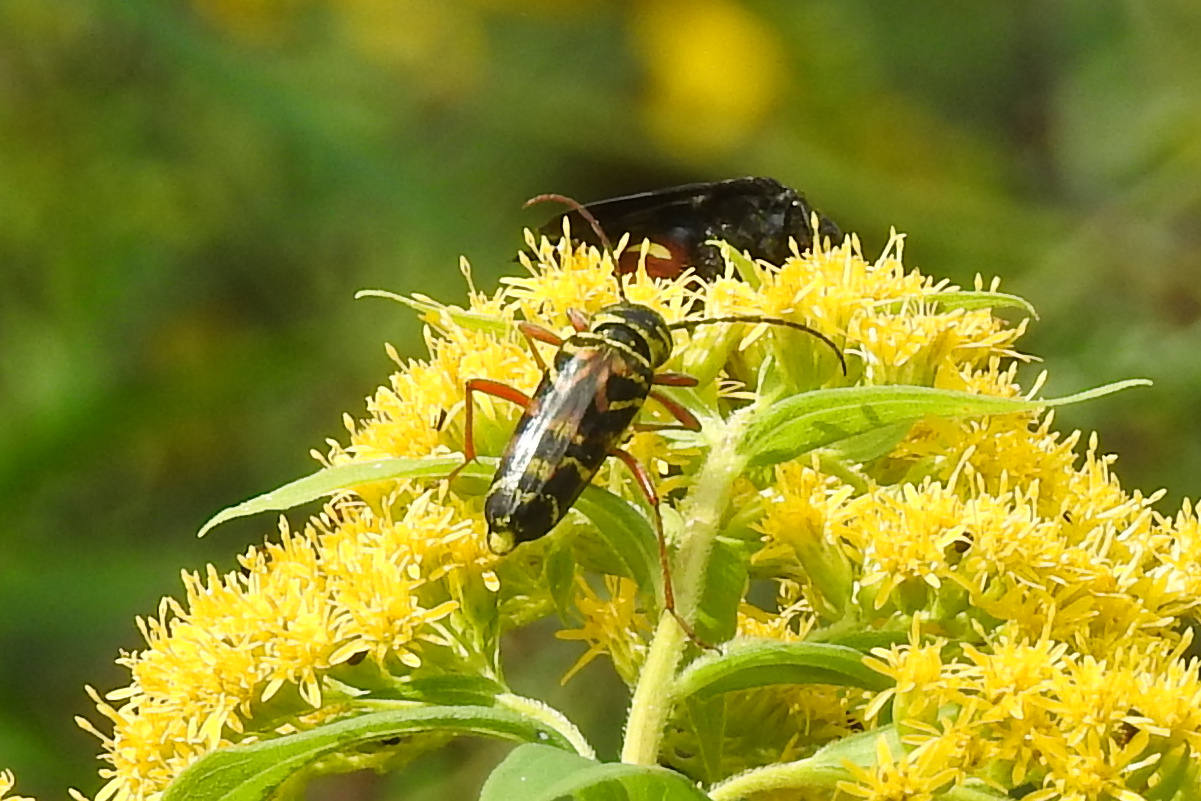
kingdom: Animalia
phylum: Arthropoda
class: Insecta
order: Coleoptera
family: Cerambycidae
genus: Megacyllene
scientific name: Megacyllene robiniae
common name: Locust borer
